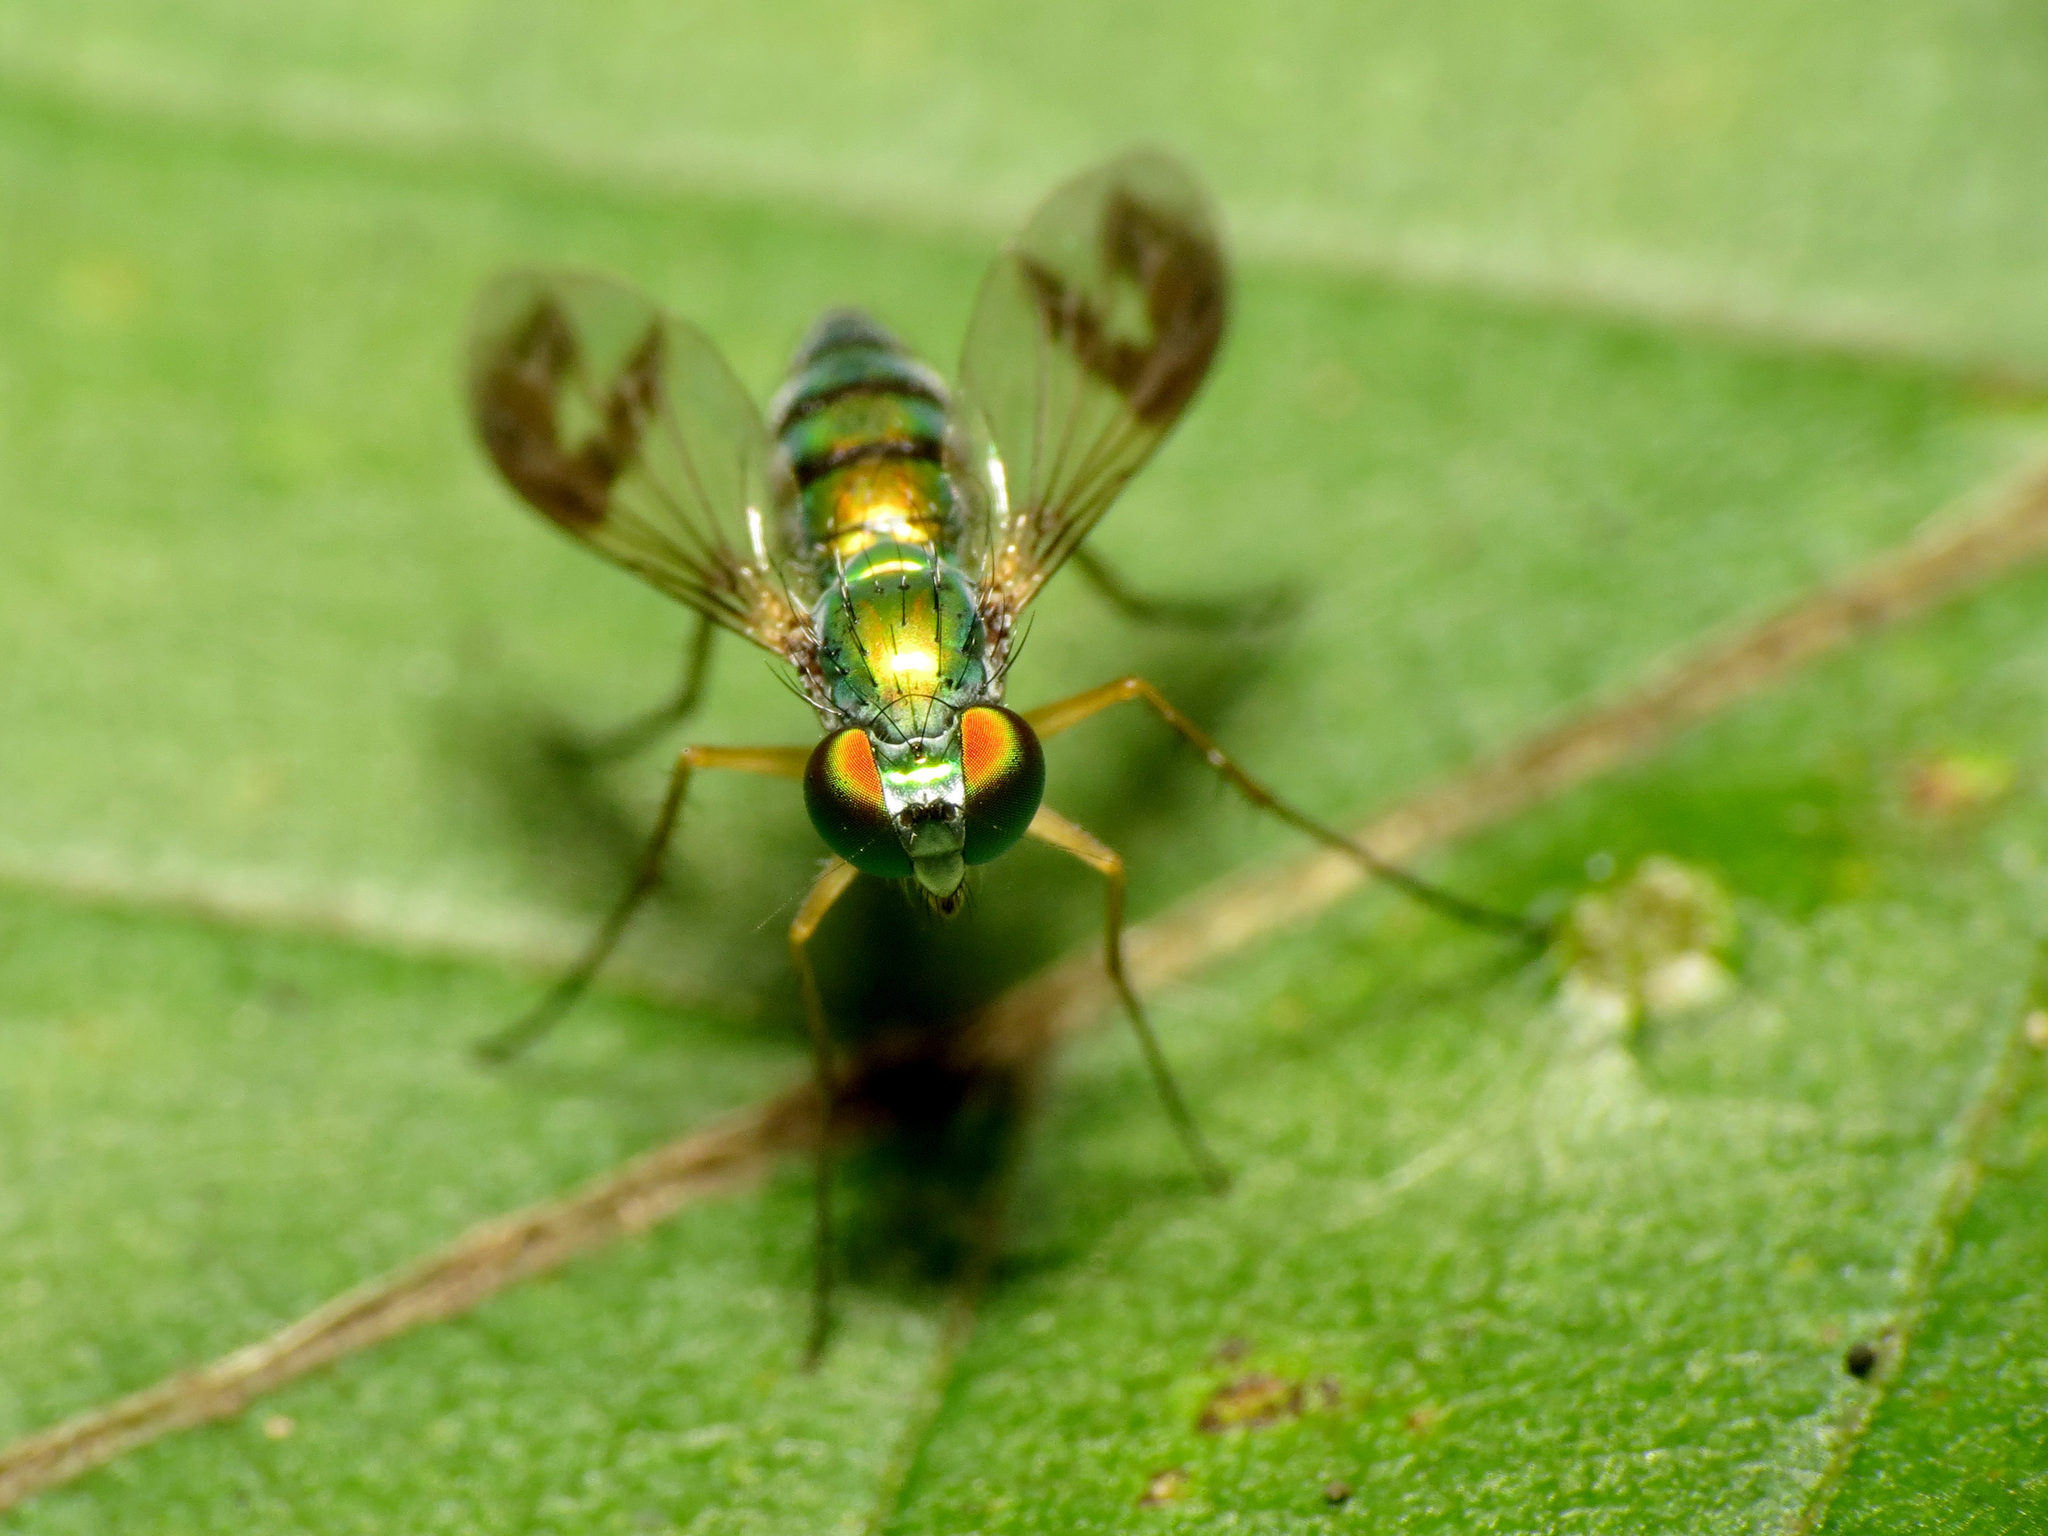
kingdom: Animalia
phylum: Arthropoda
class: Insecta
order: Diptera
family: Dolichopodidae
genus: Condylostylus
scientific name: Condylostylus
